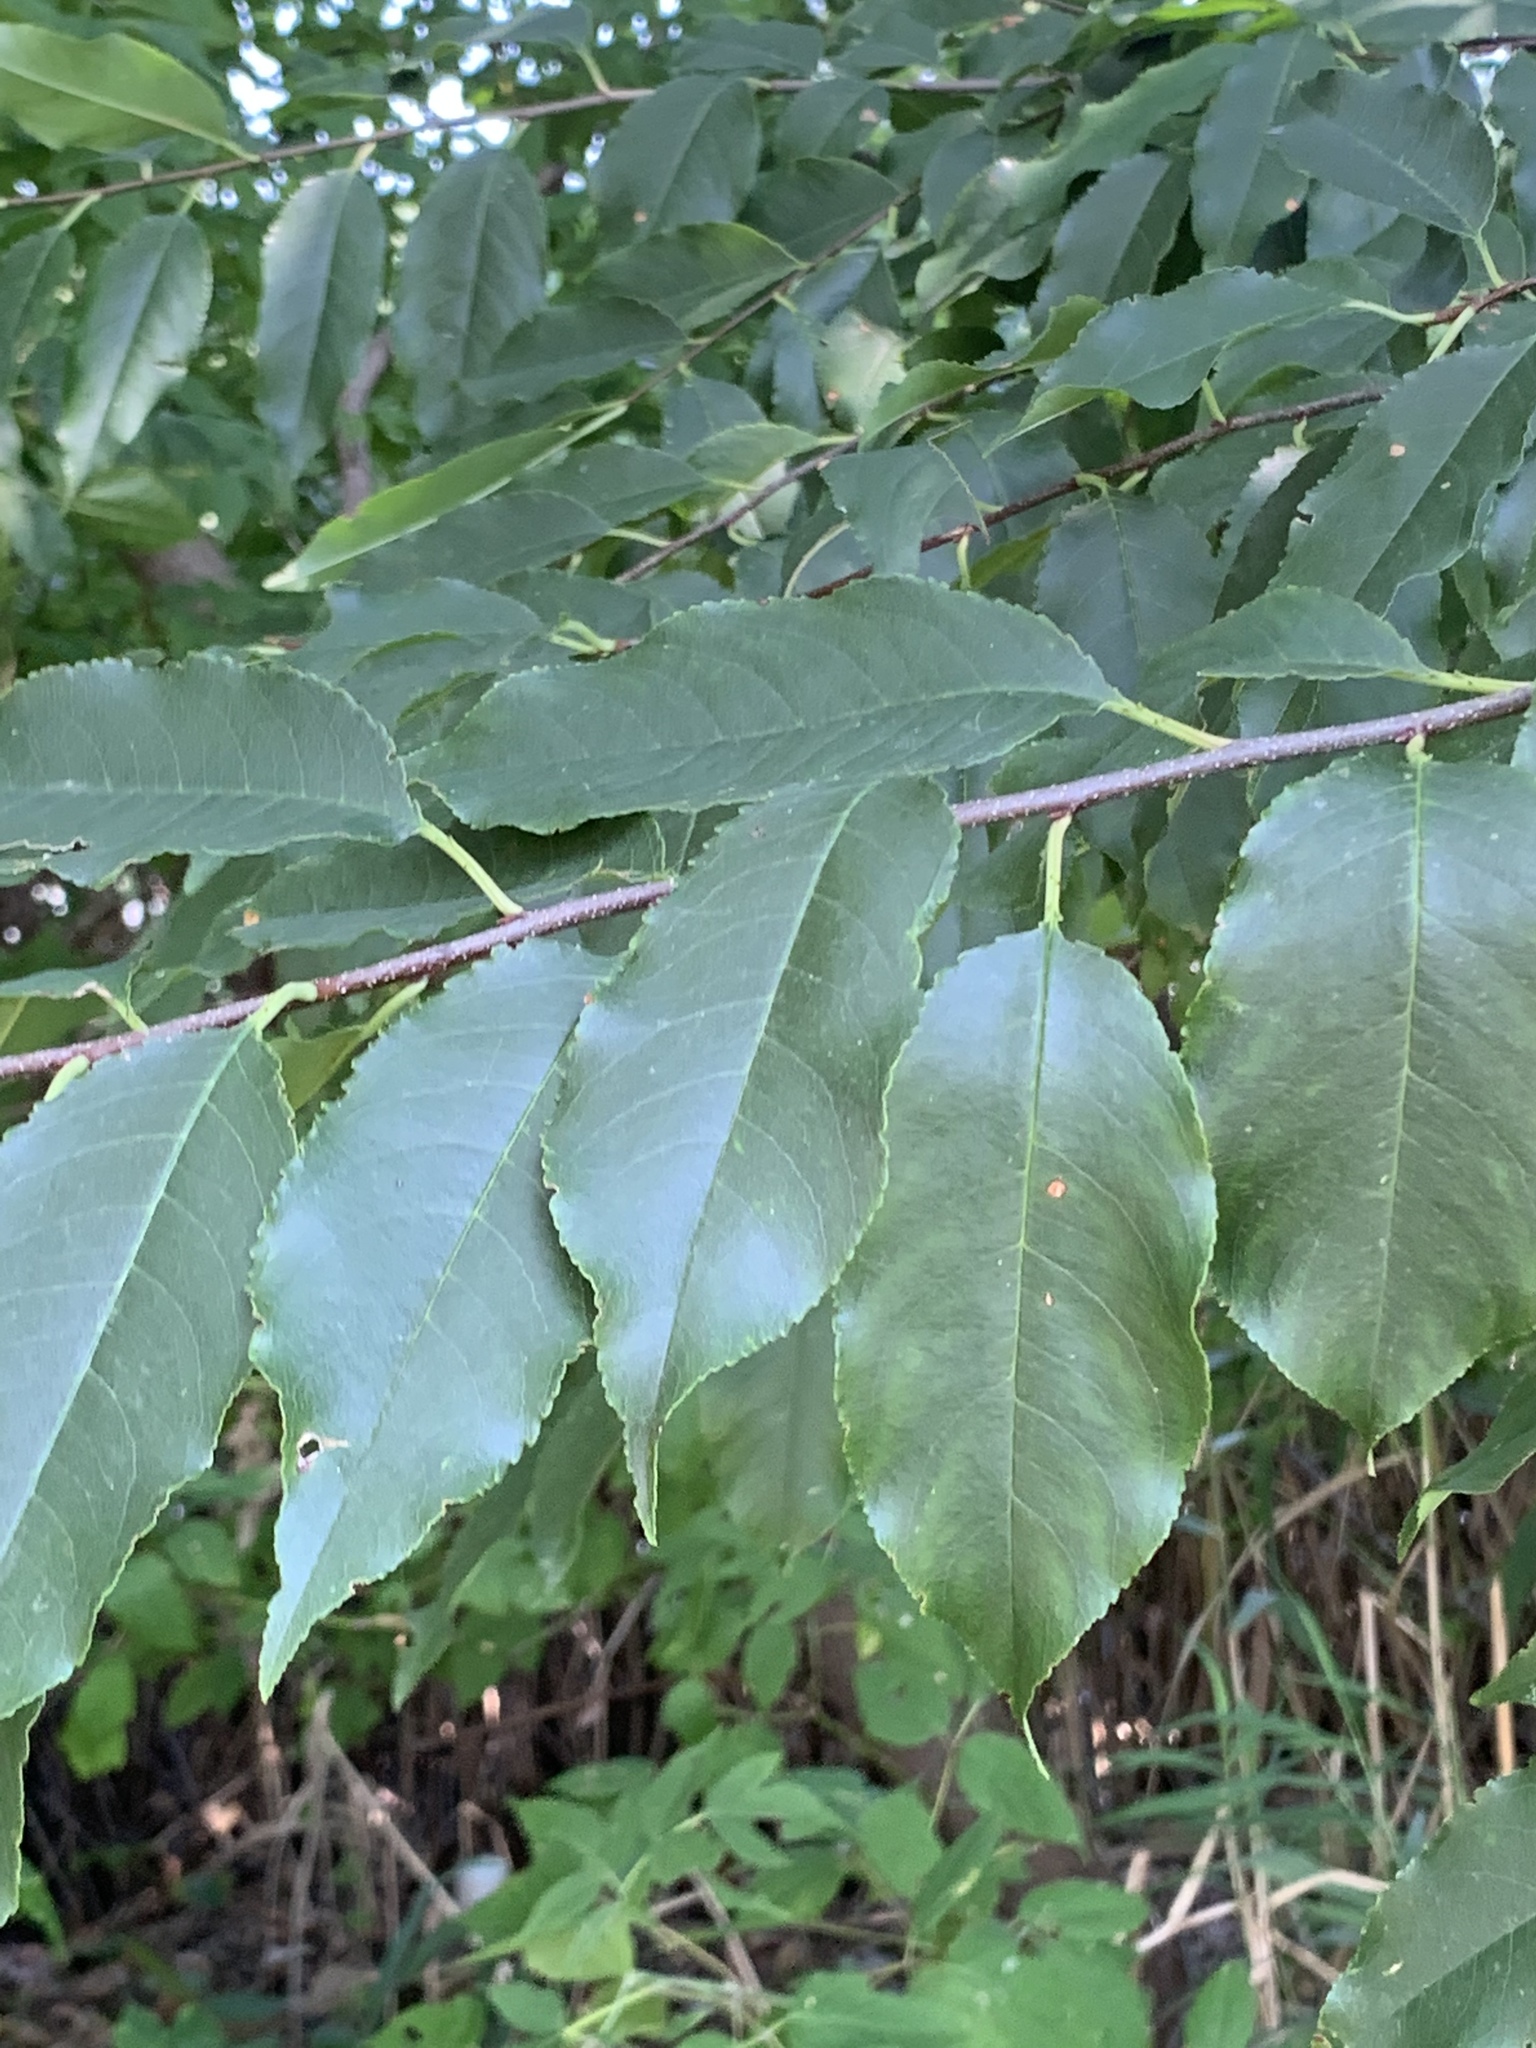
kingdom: Plantae
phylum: Tracheophyta
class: Magnoliopsida
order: Rosales
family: Rosaceae
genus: Prunus
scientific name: Prunus serotina
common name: Black cherry
